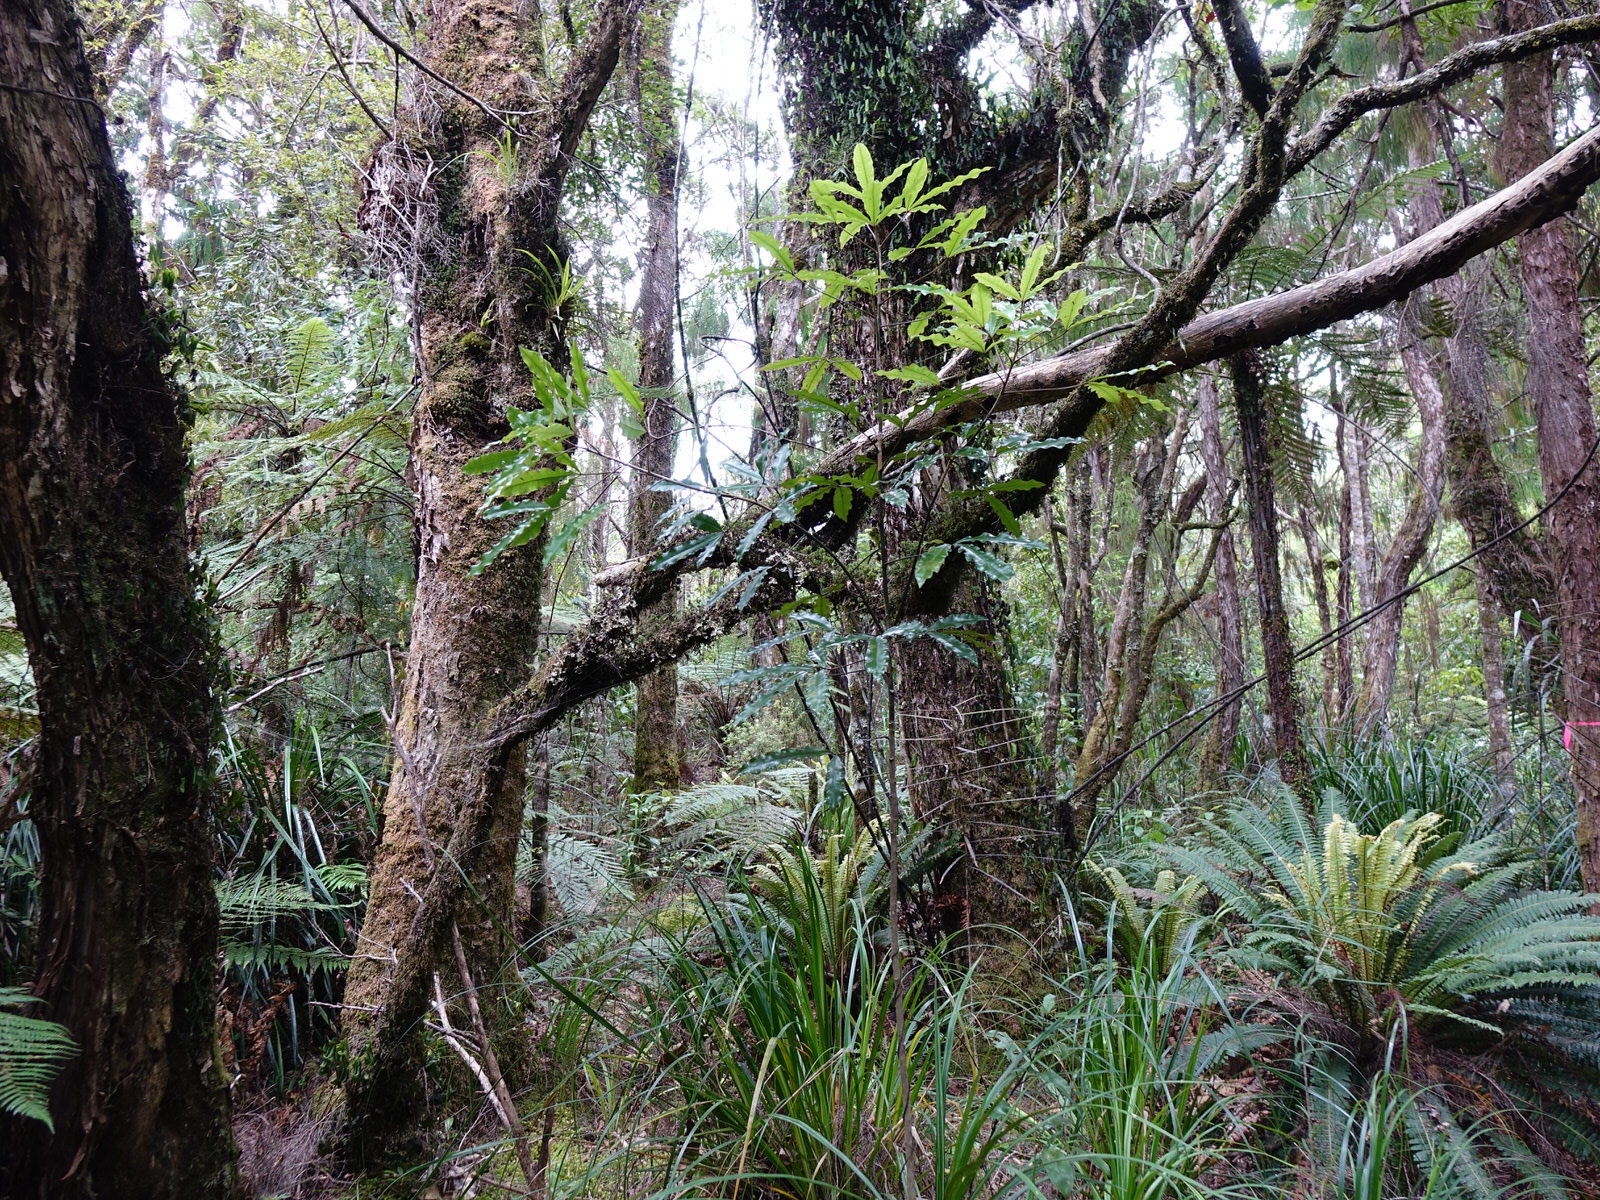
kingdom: Plantae
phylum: Tracheophyta
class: Magnoliopsida
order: Apiales
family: Araliaceae
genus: Raukaua
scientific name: Raukaua edgerleyi
